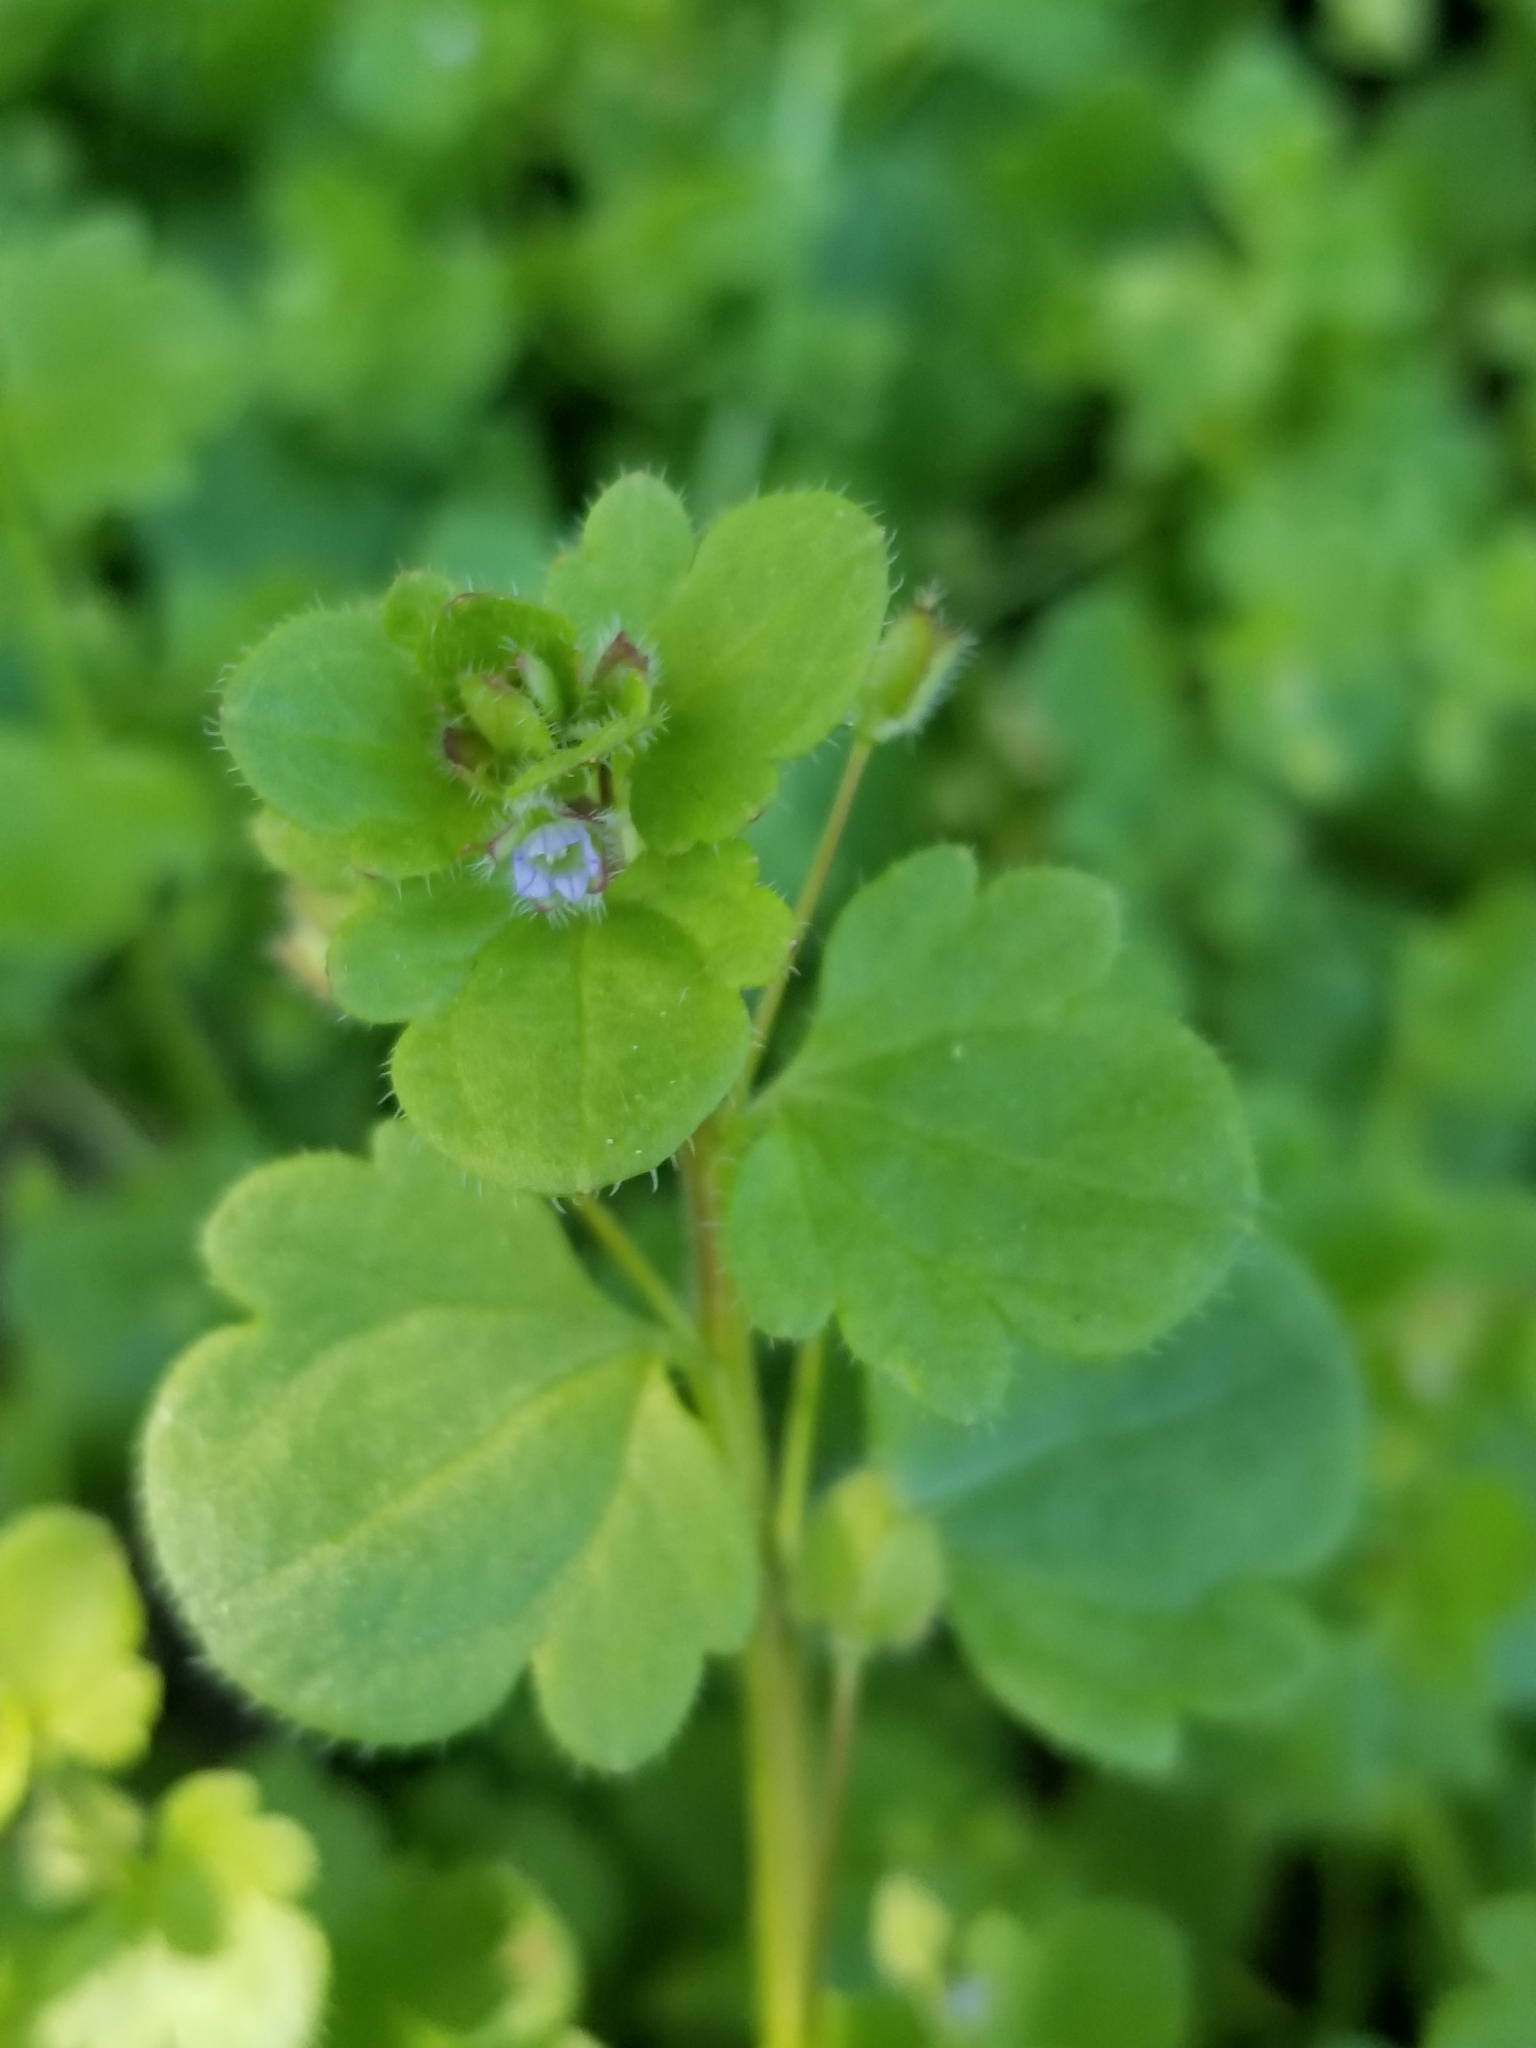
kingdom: Plantae
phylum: Tracheophyta
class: Magnoliopsida
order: Lamiales
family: Plantaginaceae
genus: Veronica
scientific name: Veronica hederifolia
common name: Ivy-leaved speedwell
